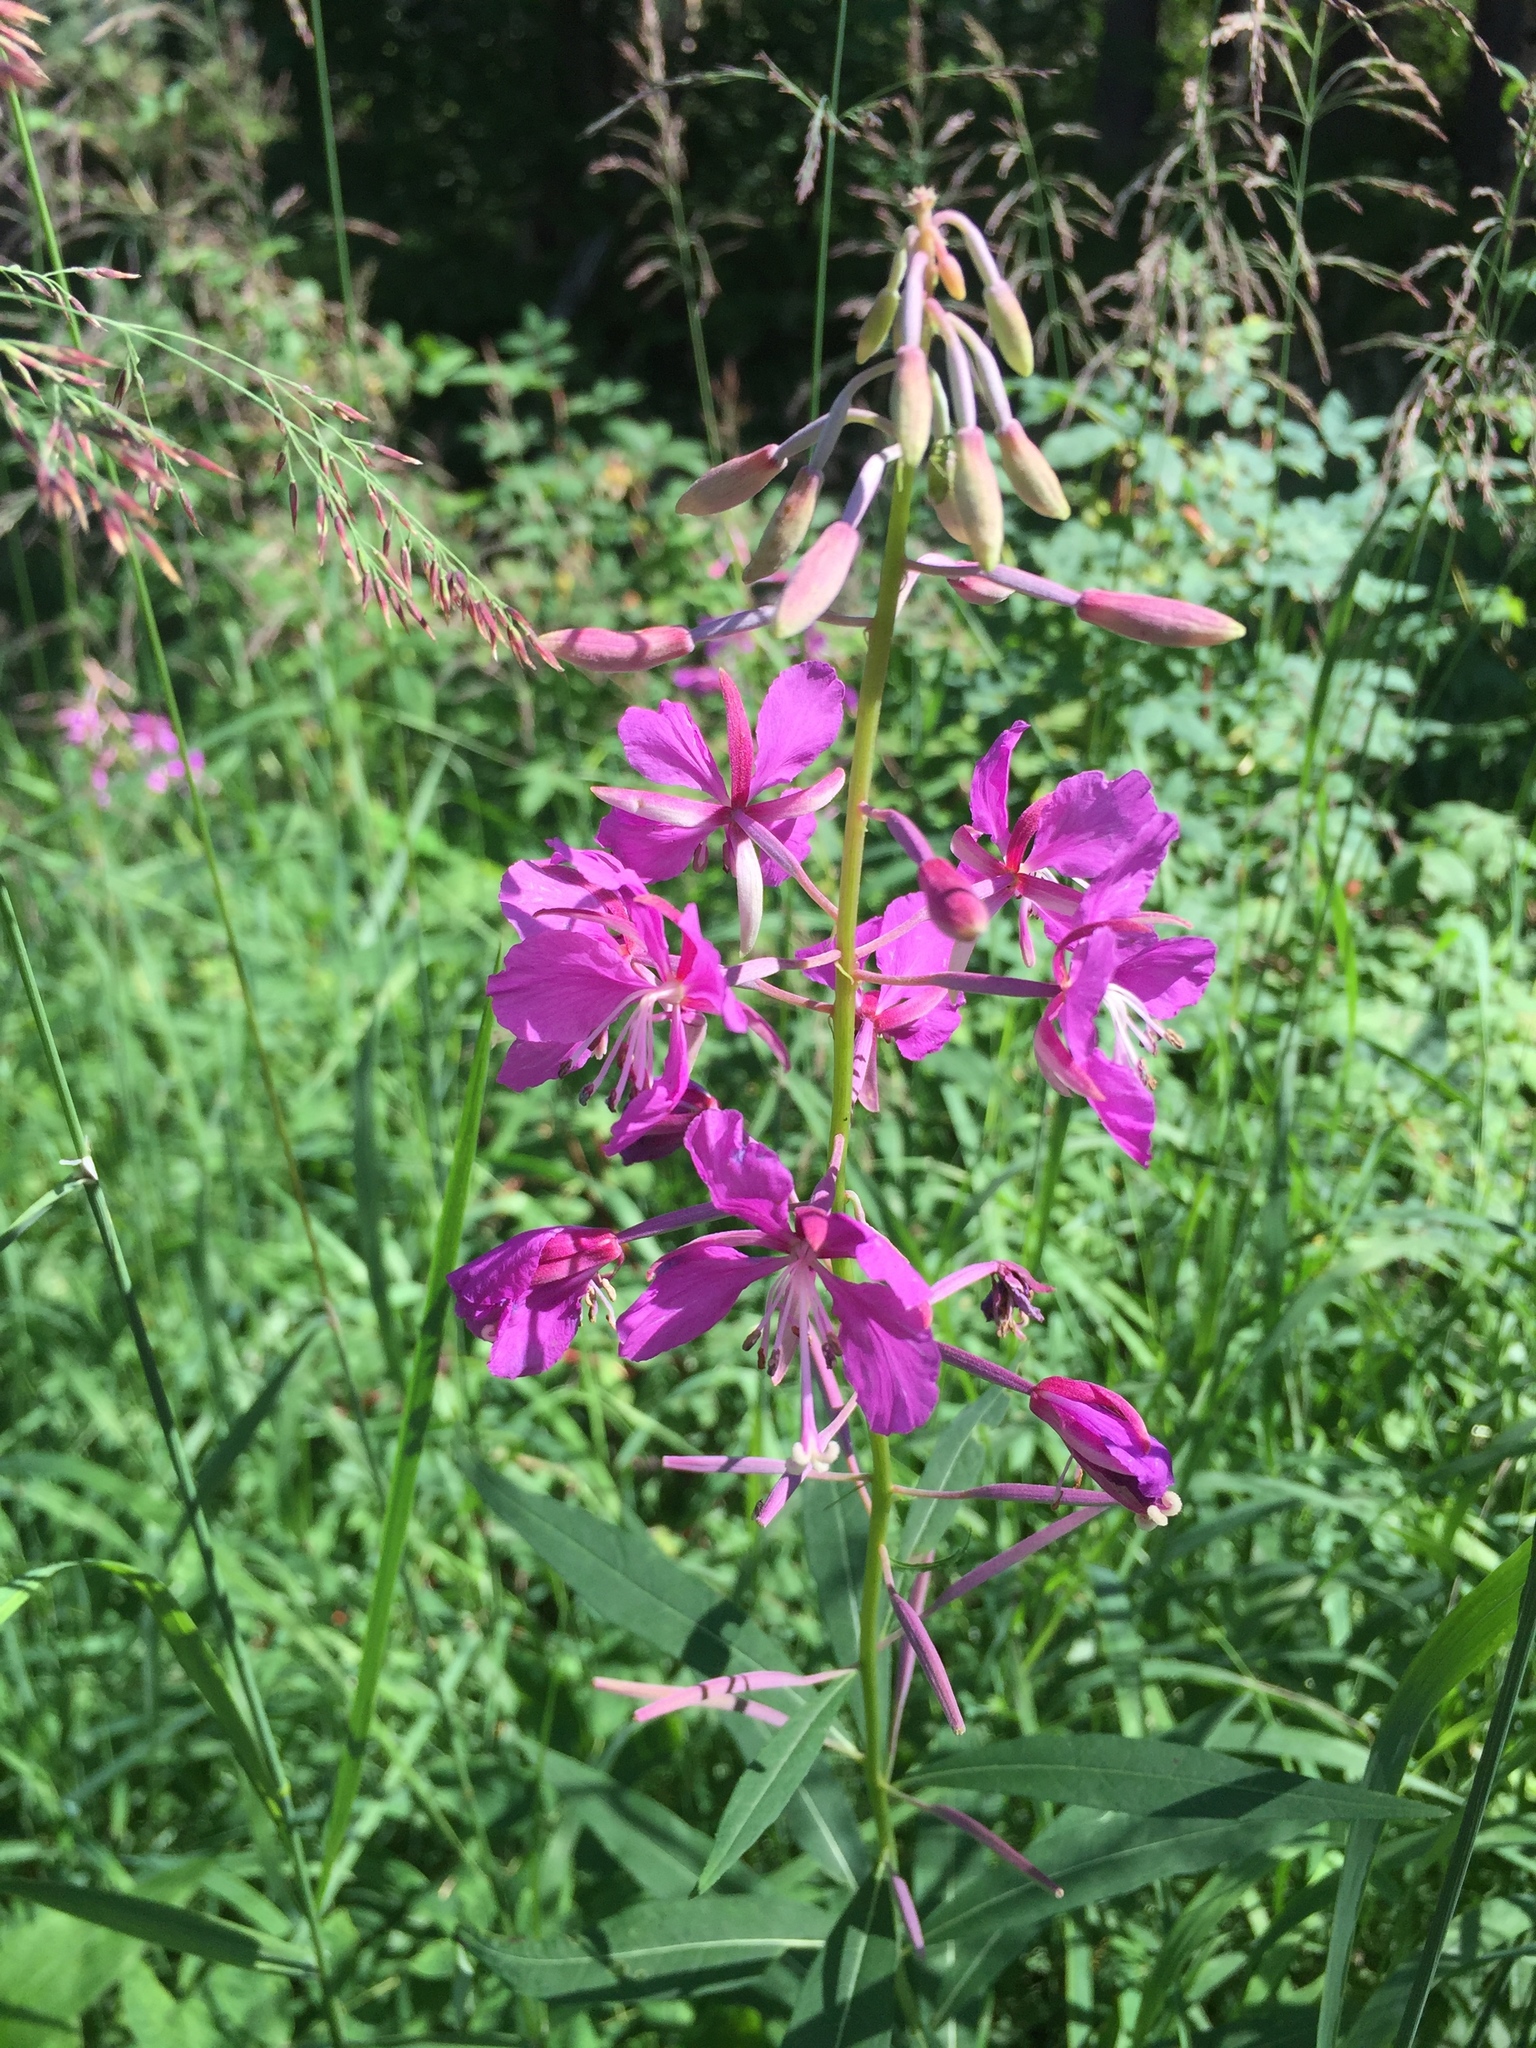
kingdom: Plantae
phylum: Tracheophyta
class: Magnoliopsida
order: Myrtales
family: Onagraceae
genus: Chamaenerion
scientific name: Chamaenerion angustifolium
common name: Fireweed
